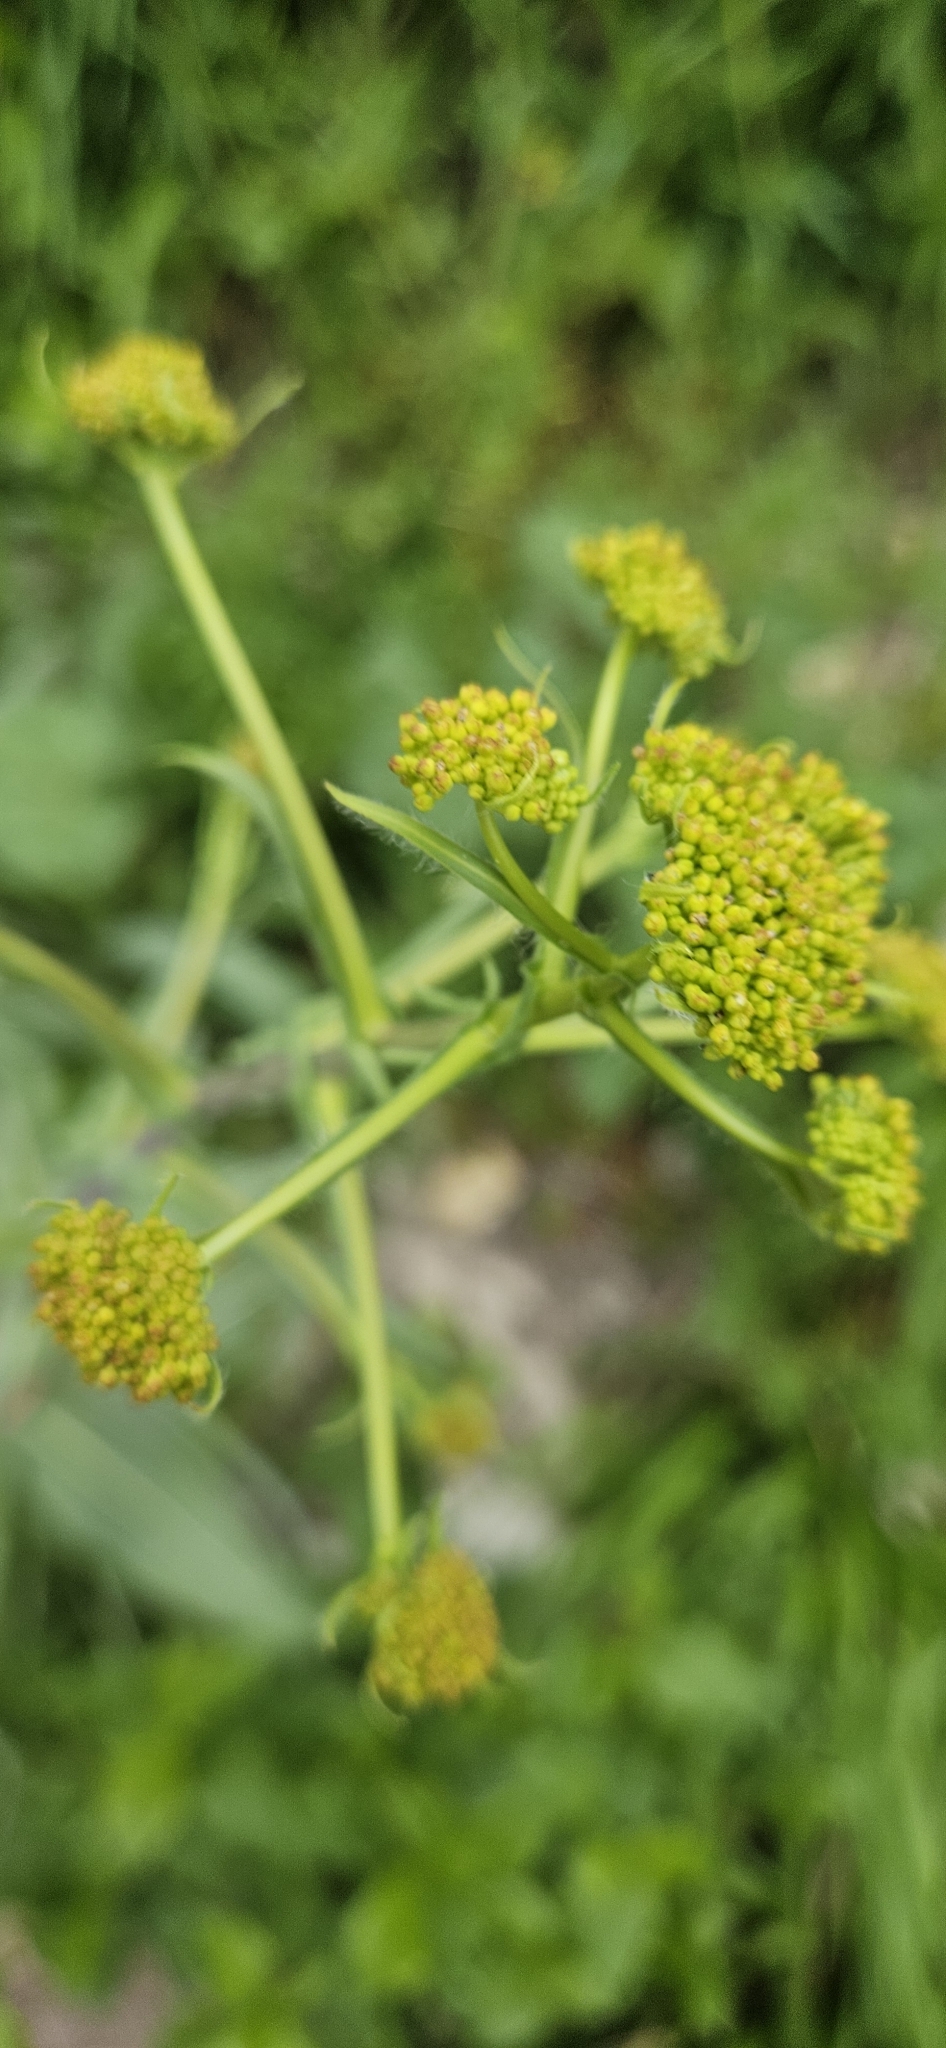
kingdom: Plantae
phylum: Tracheophyta
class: Magnoliopsida
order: Brassicales
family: Brassicaceae
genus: Isatis
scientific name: Isatis tinctoria
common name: Woad
